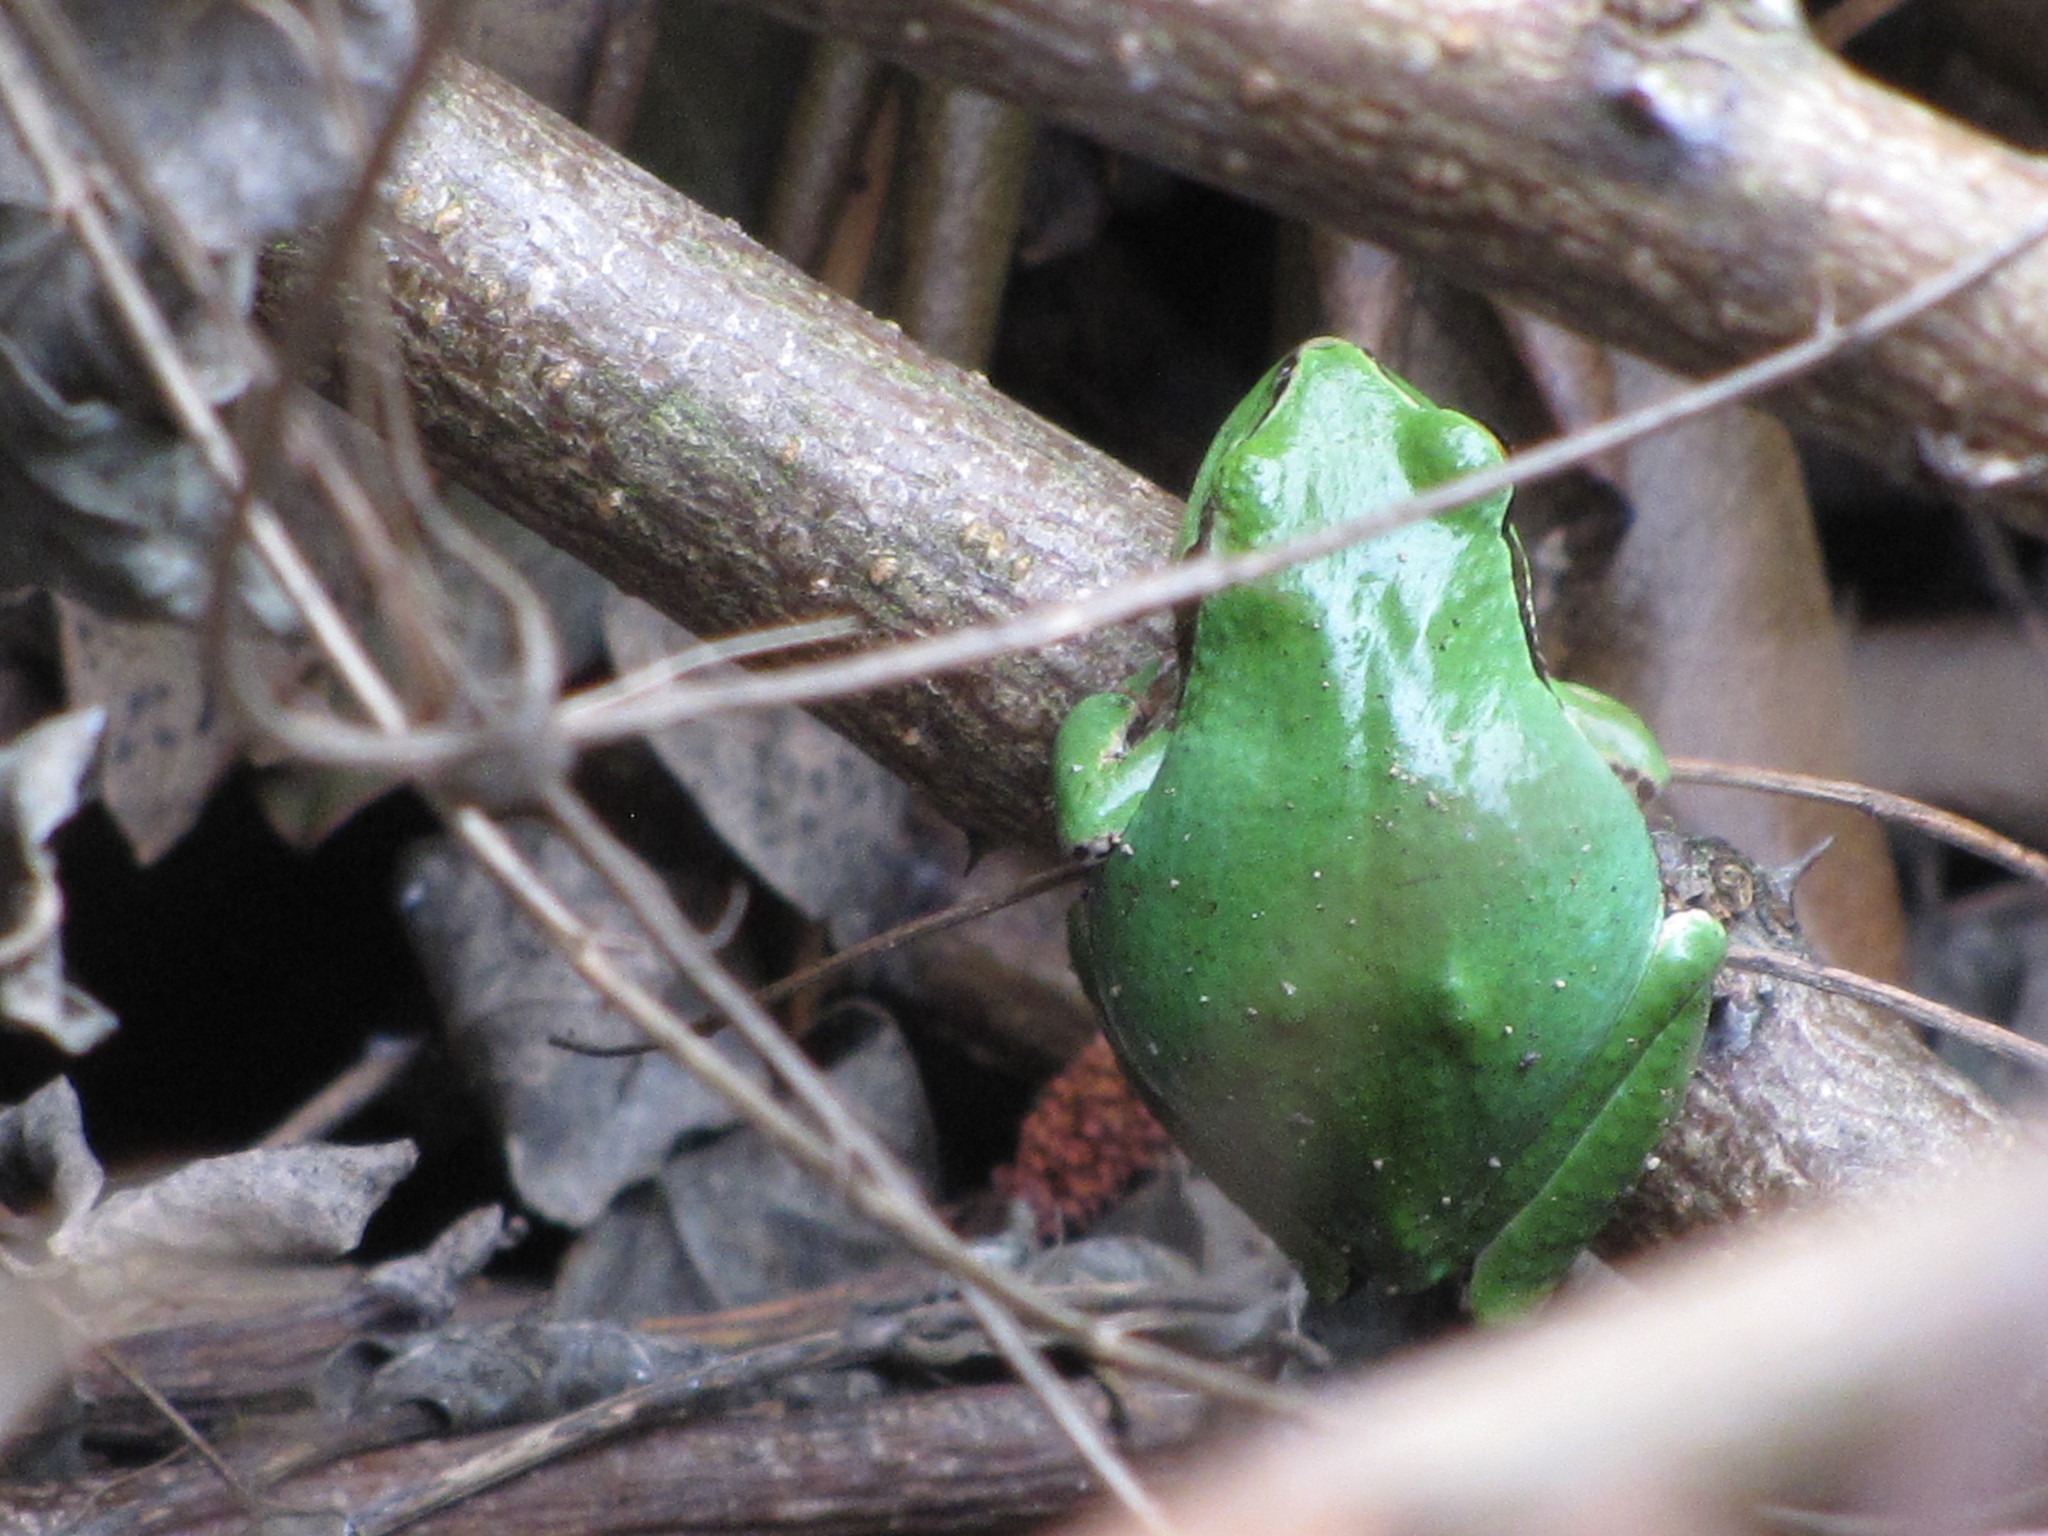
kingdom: Animalia
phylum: Chordata
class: Amphibia
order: Anura
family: Hylidae
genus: Pseudacris
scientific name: Pseudacris regilla
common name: Pacific chorus frog
